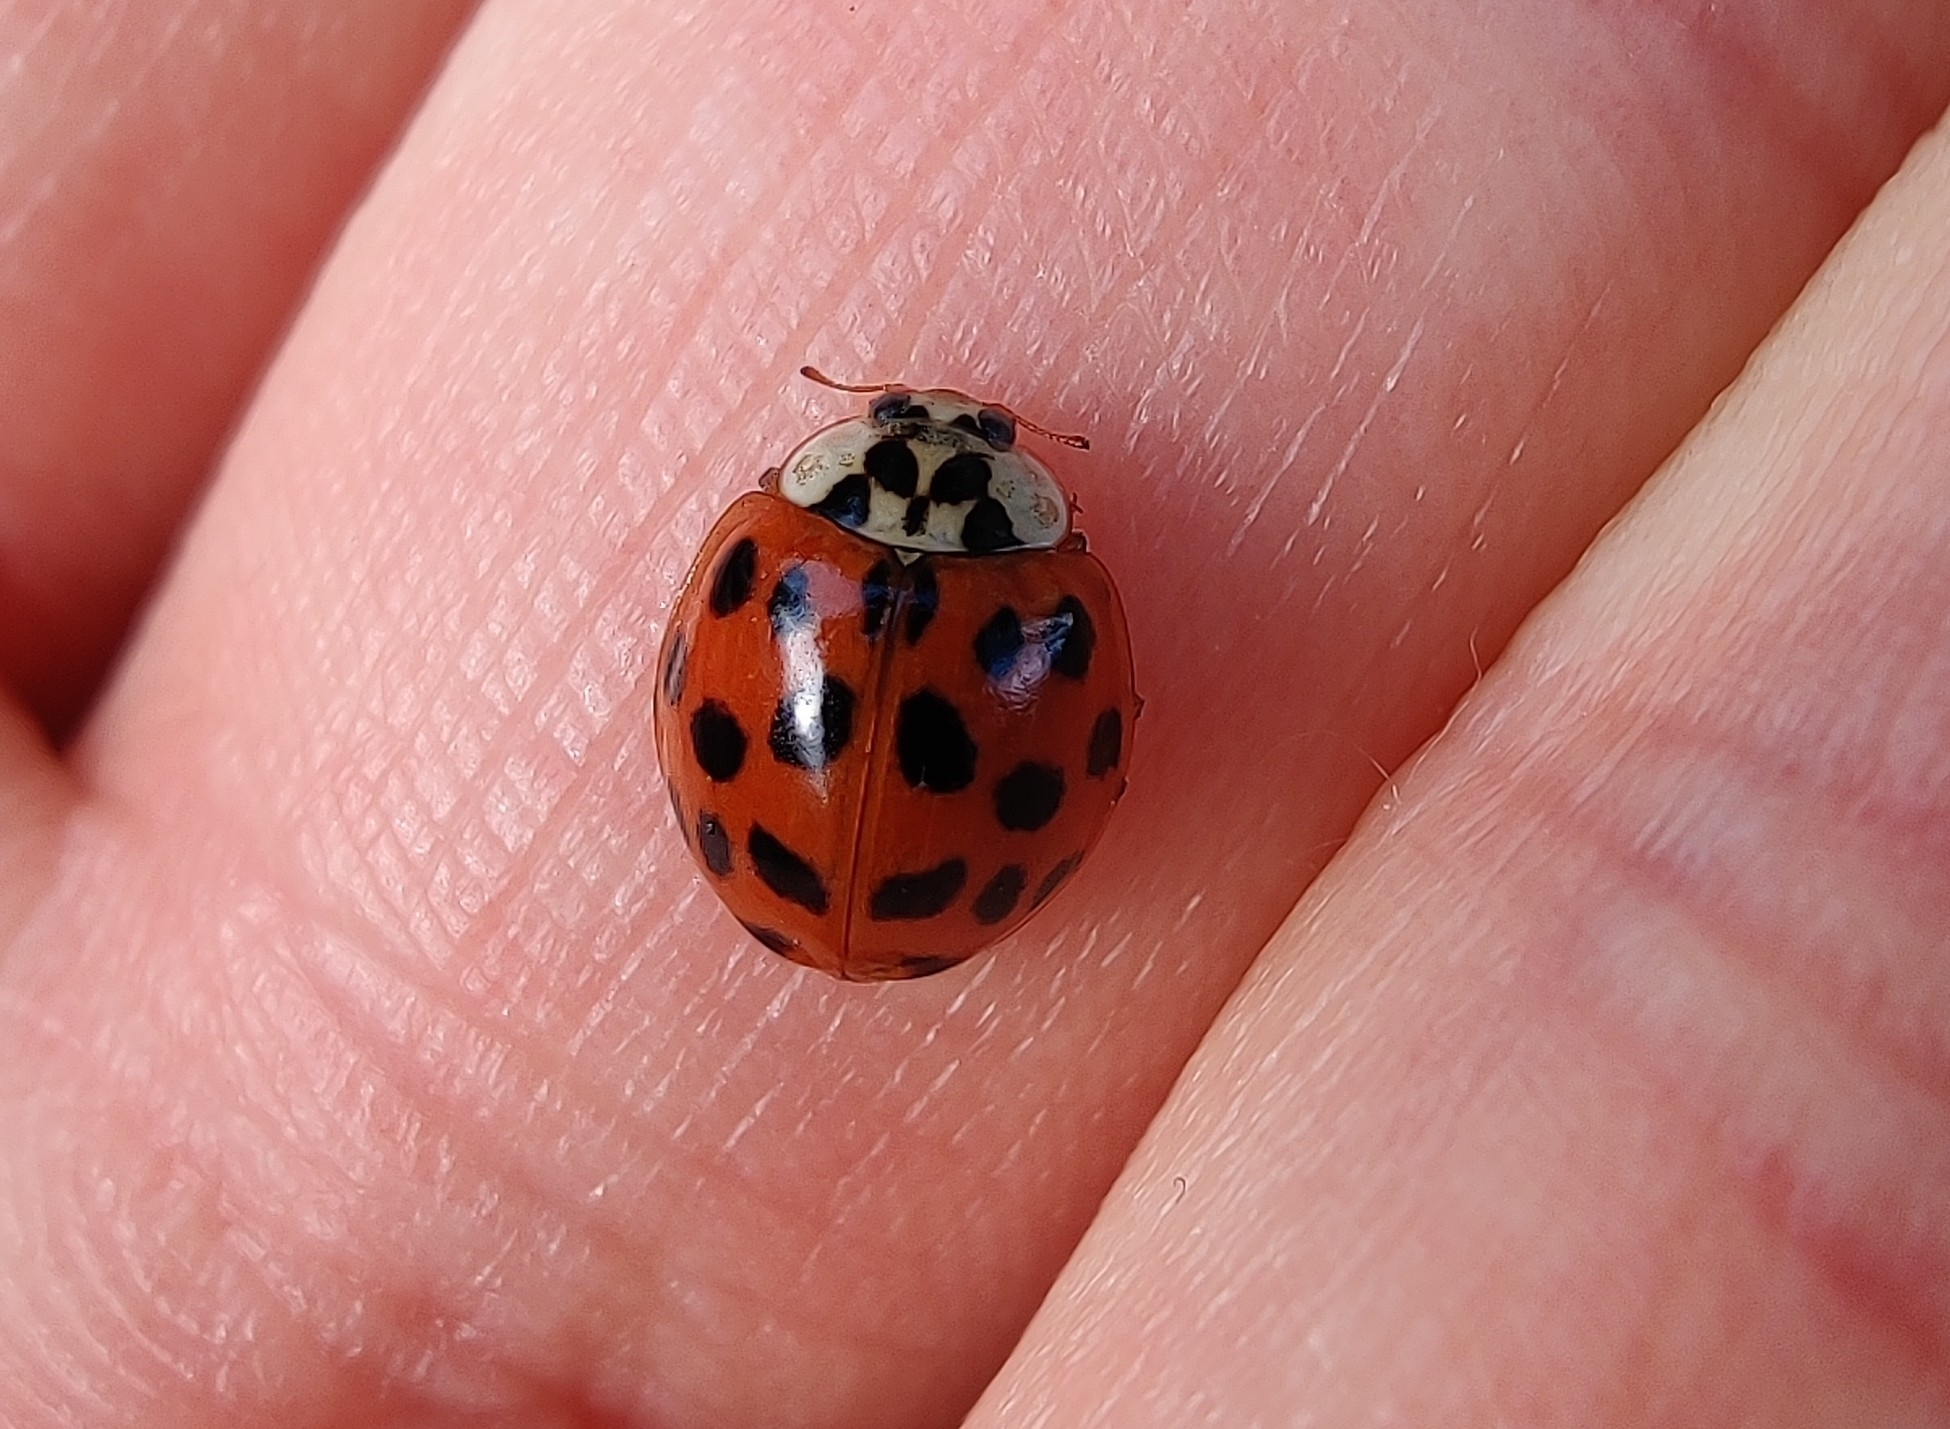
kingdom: Animalia
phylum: Arthropoda
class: Insecta
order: Coleoptera
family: Coccinellidae
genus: Harmonia
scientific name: Harmonia axyridis
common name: Harlequin ladybird
